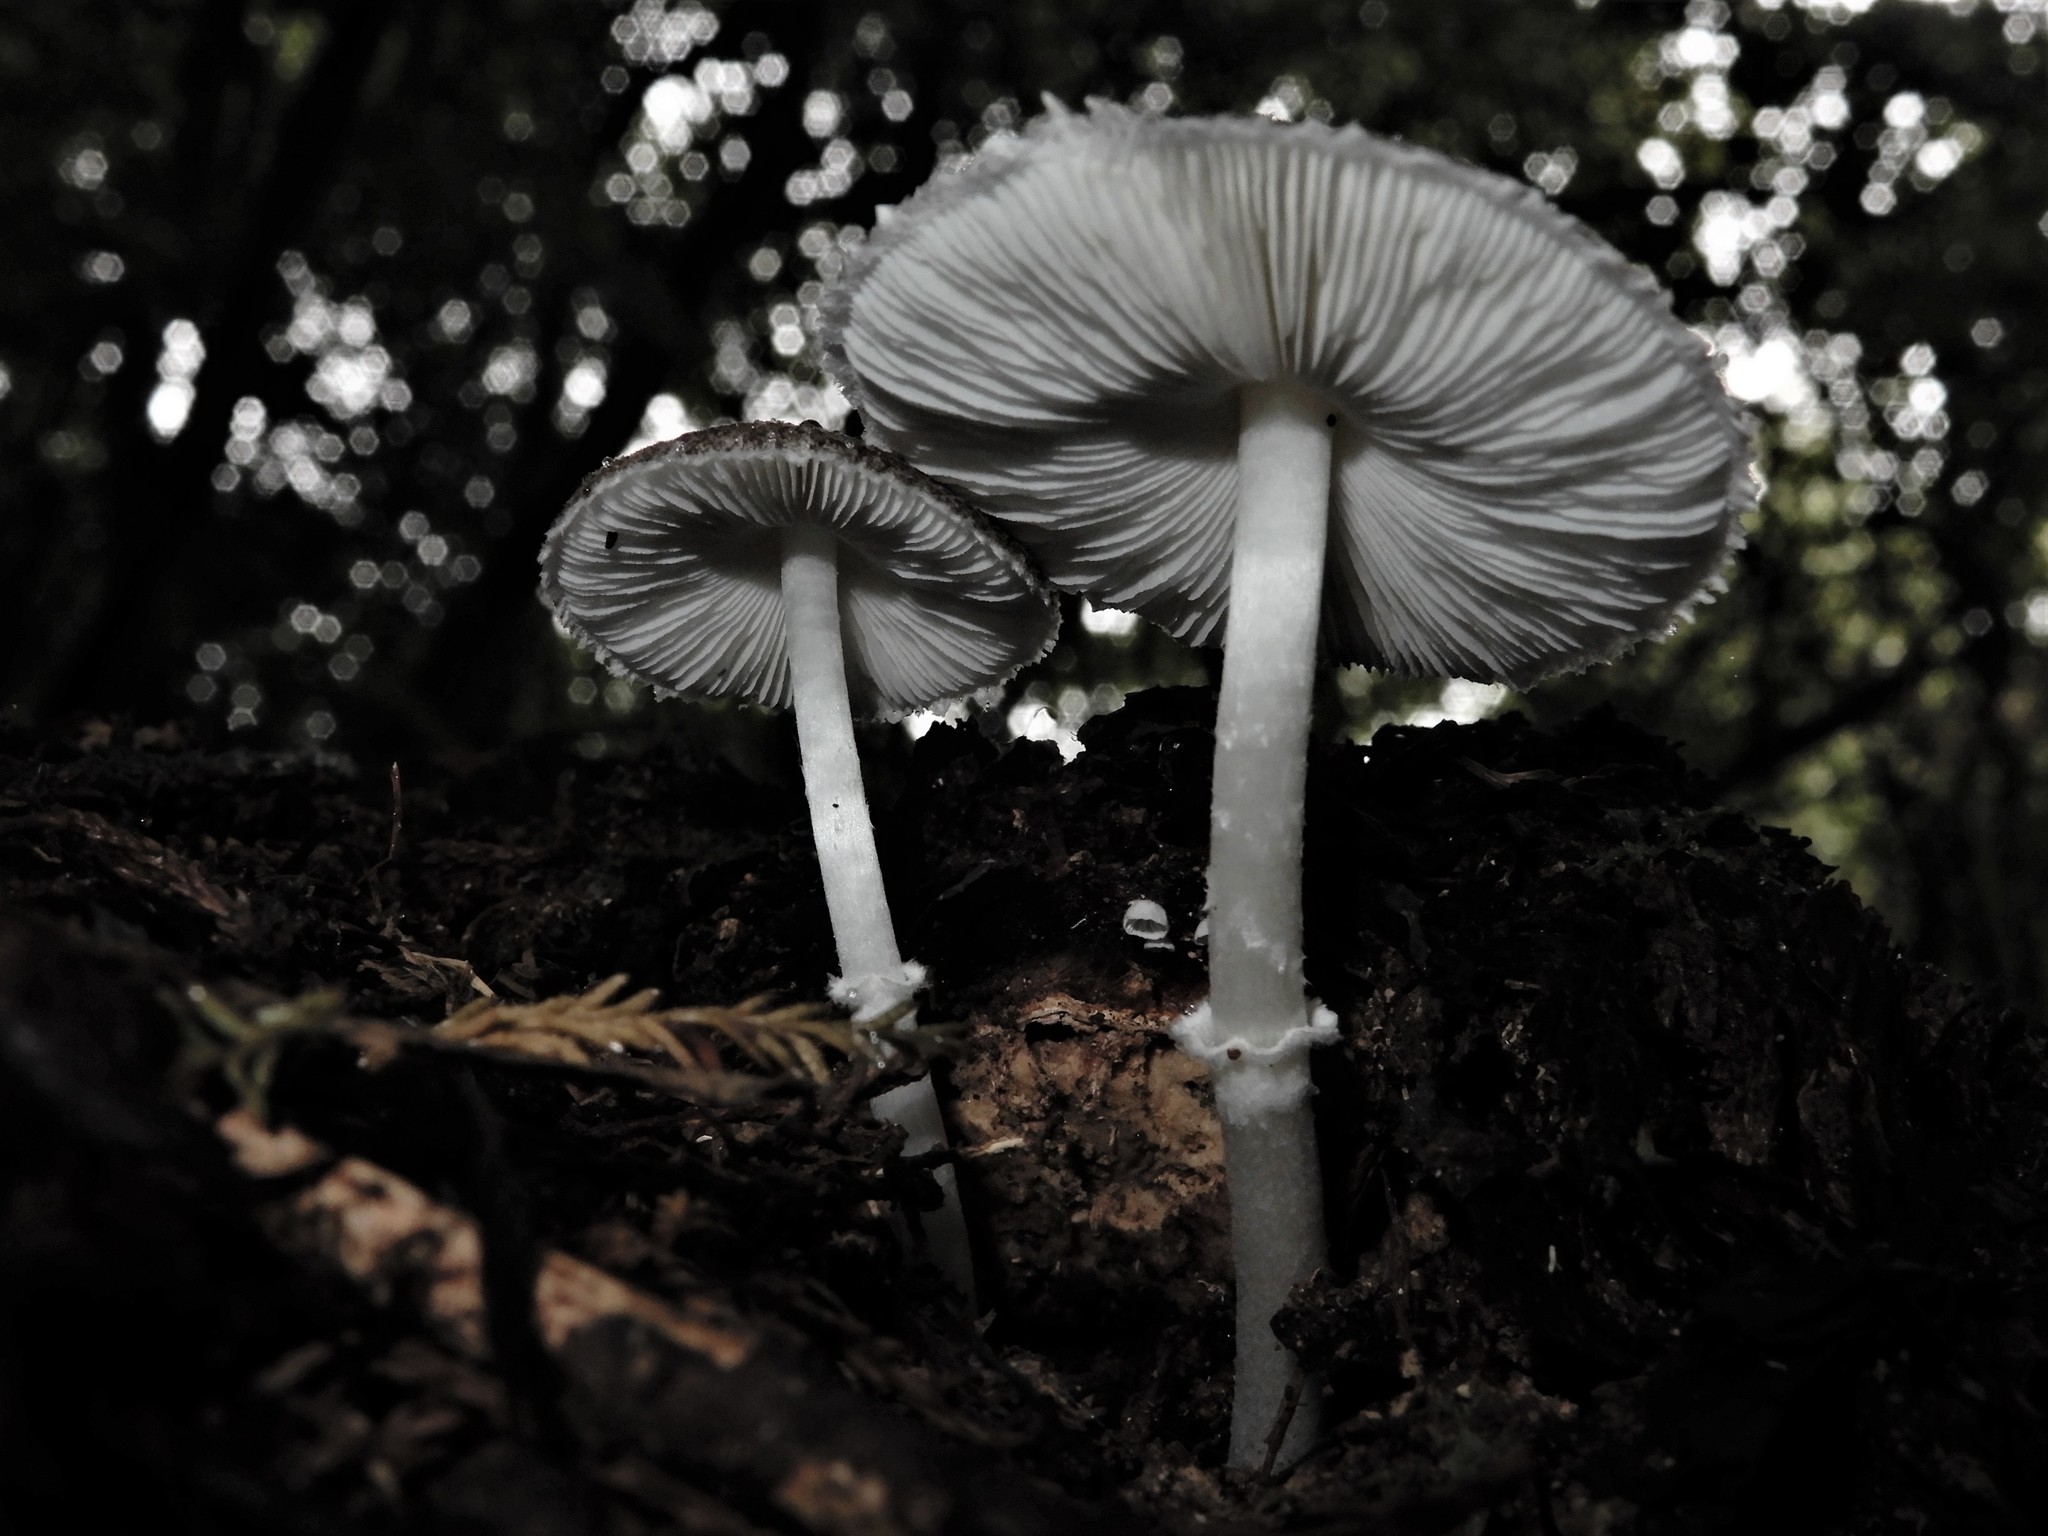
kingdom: Fungi
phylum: Basidiomycota
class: Agaricomycetes
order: Agaricales
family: Agaricaceae
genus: Leucoagaricus
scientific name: Leucoagaricus
